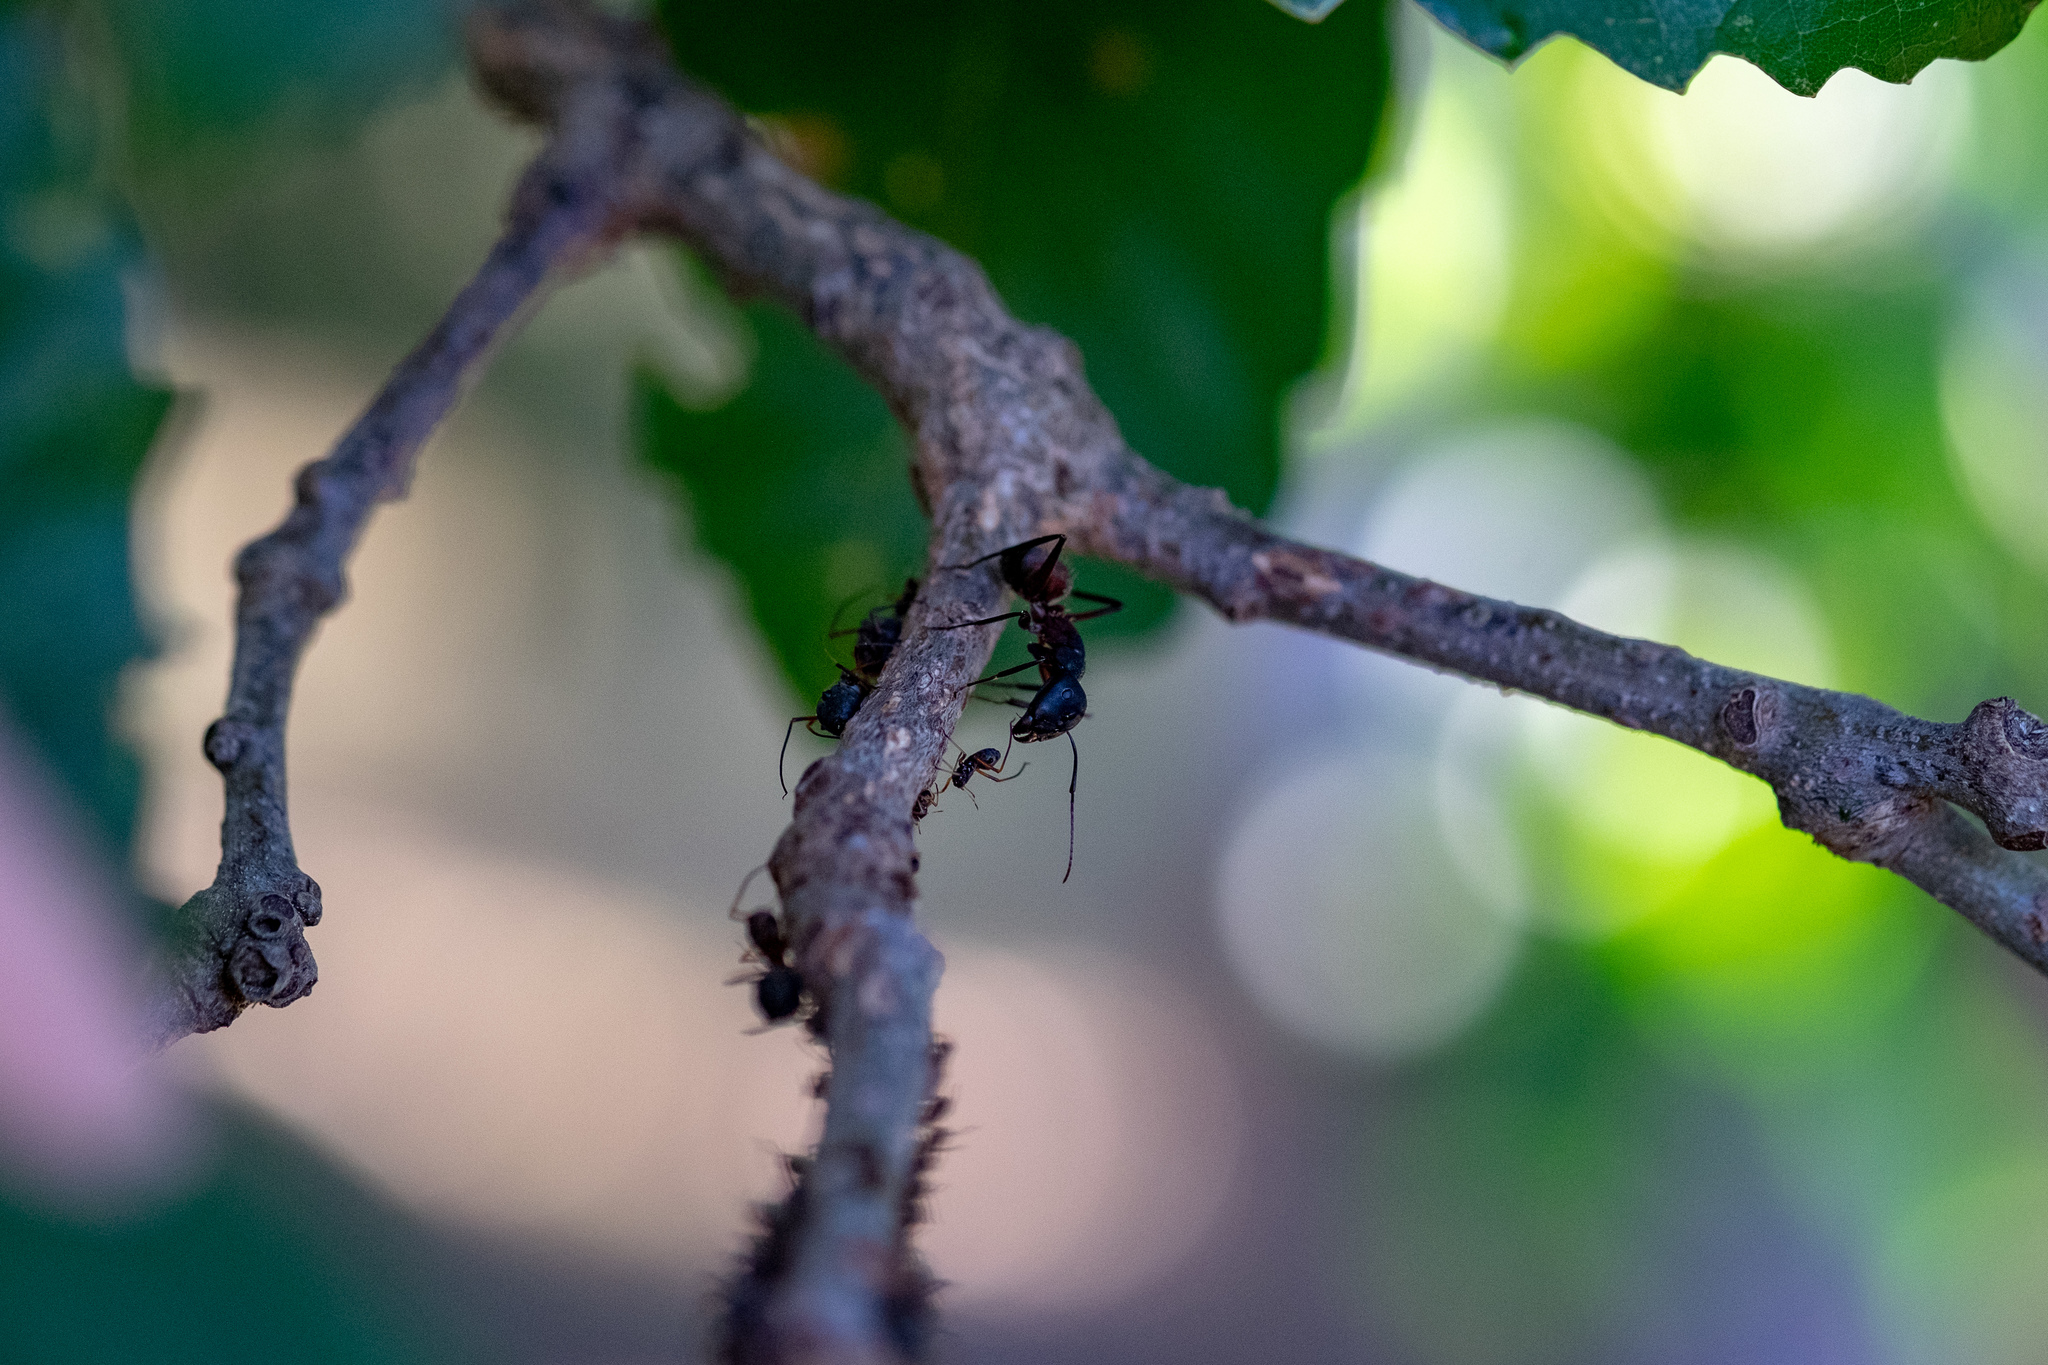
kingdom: Animalia
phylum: Arthropoda
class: Insecta
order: Hymenoptera
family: Formicidae
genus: Camponotus
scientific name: Camponotus cruentatus
